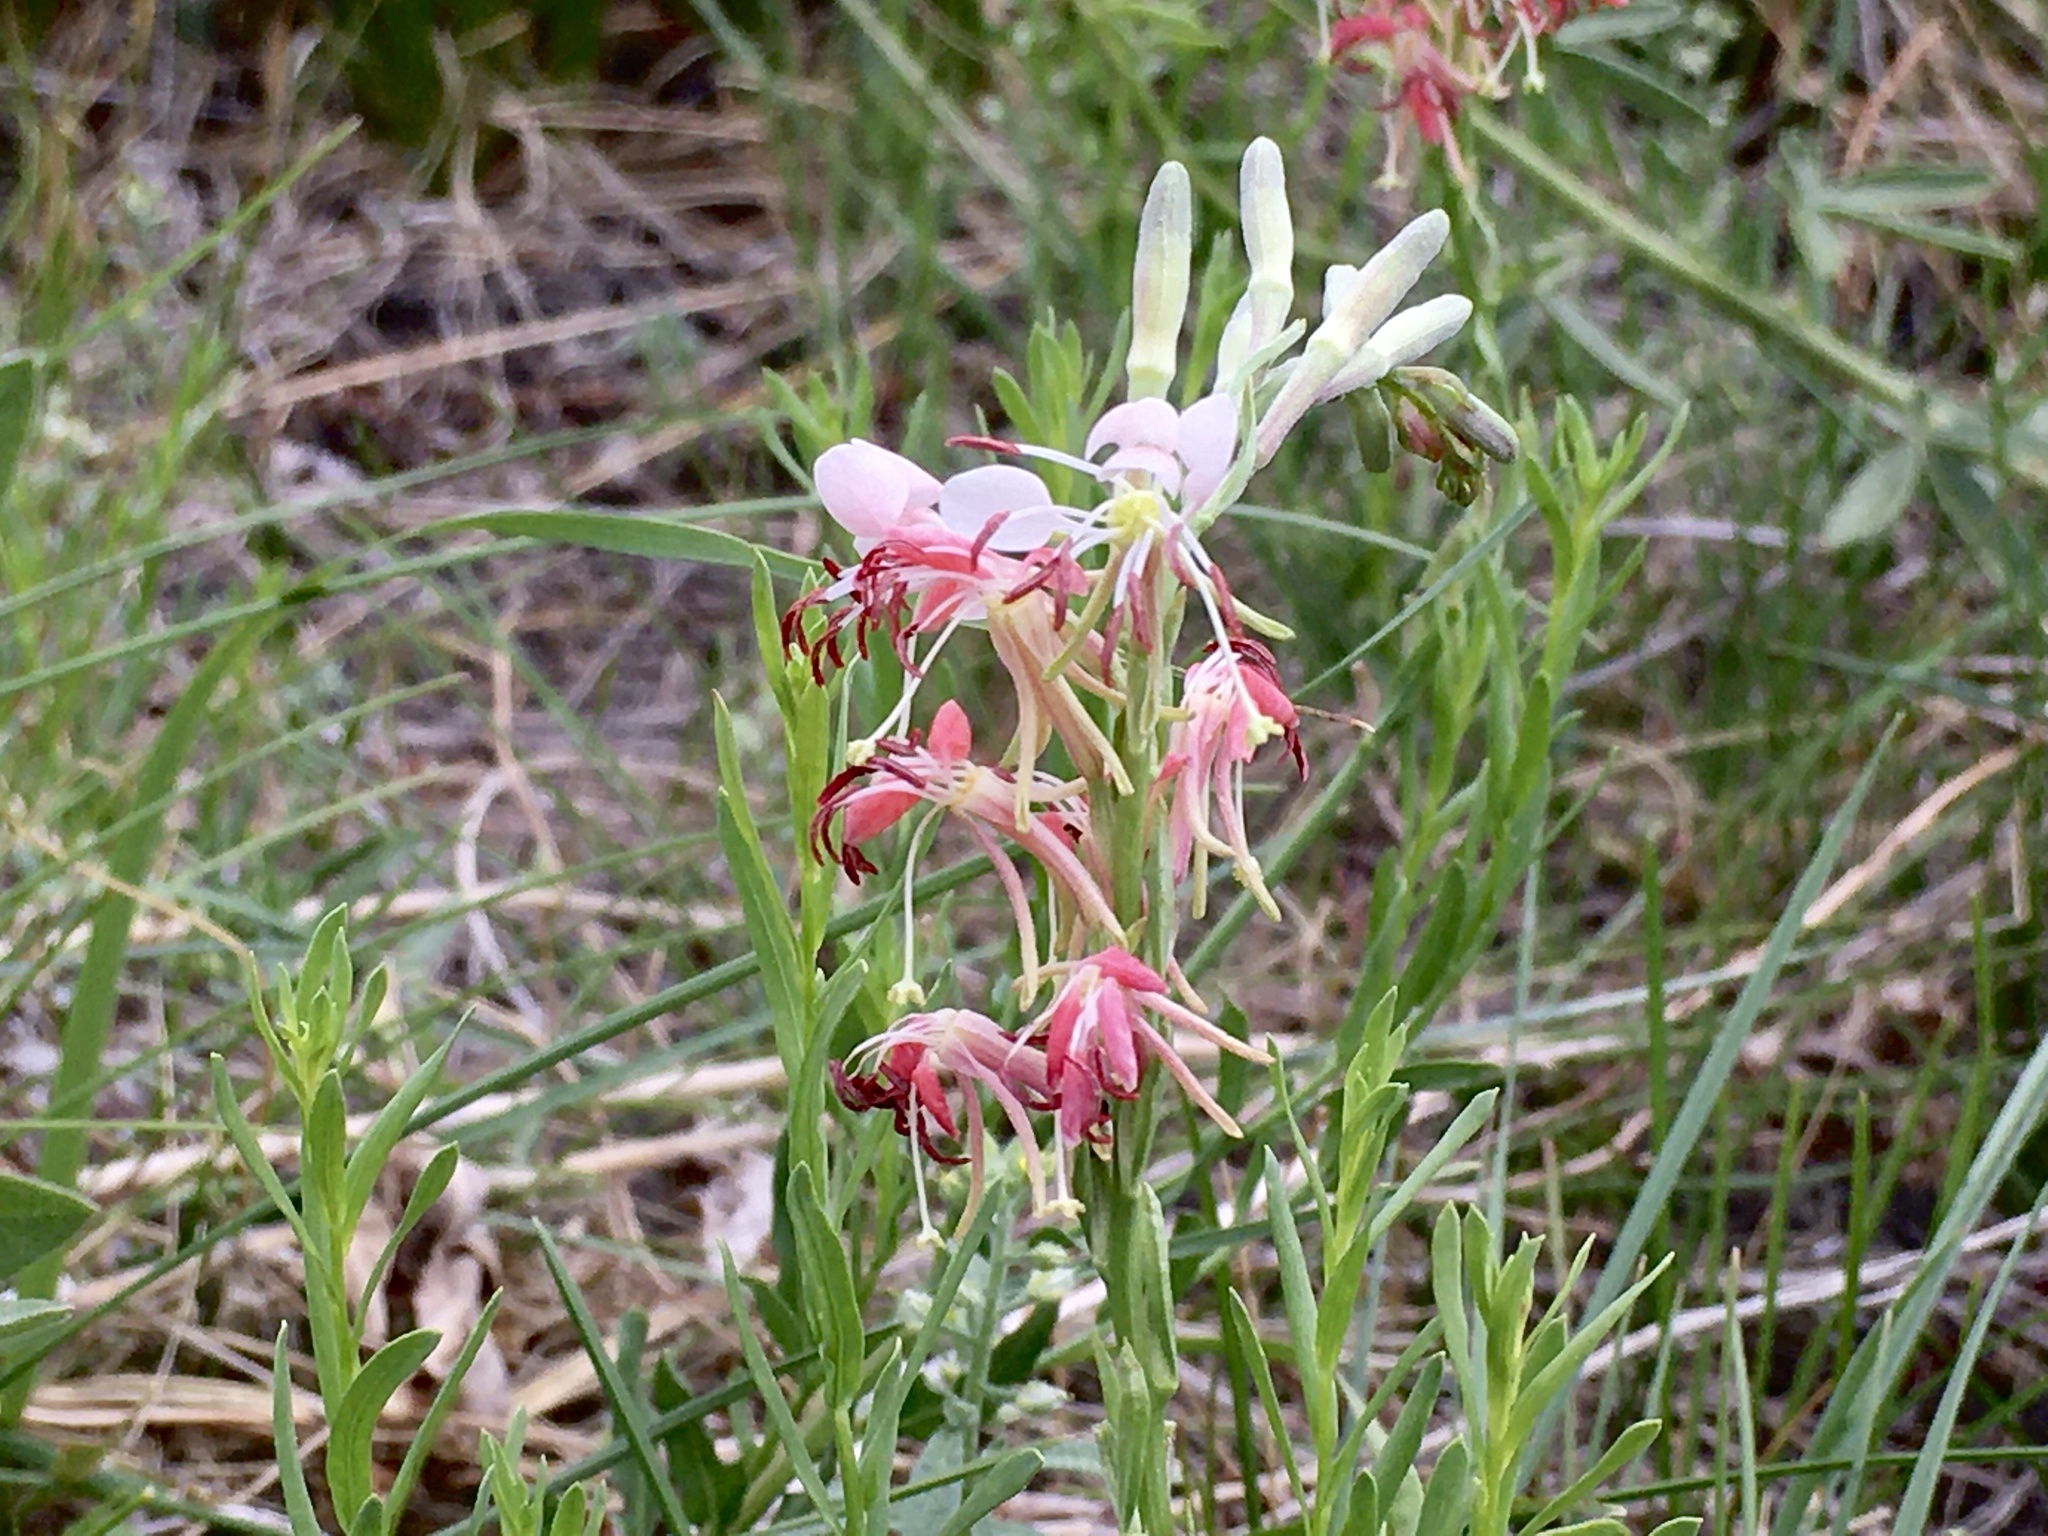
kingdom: Plantae
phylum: Tracheophyta
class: Magnoliopsida
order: Myrtales
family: Onagraceae
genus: Oenothera
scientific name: Oenothera suffrutescens
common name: Scarlet beeblossom
